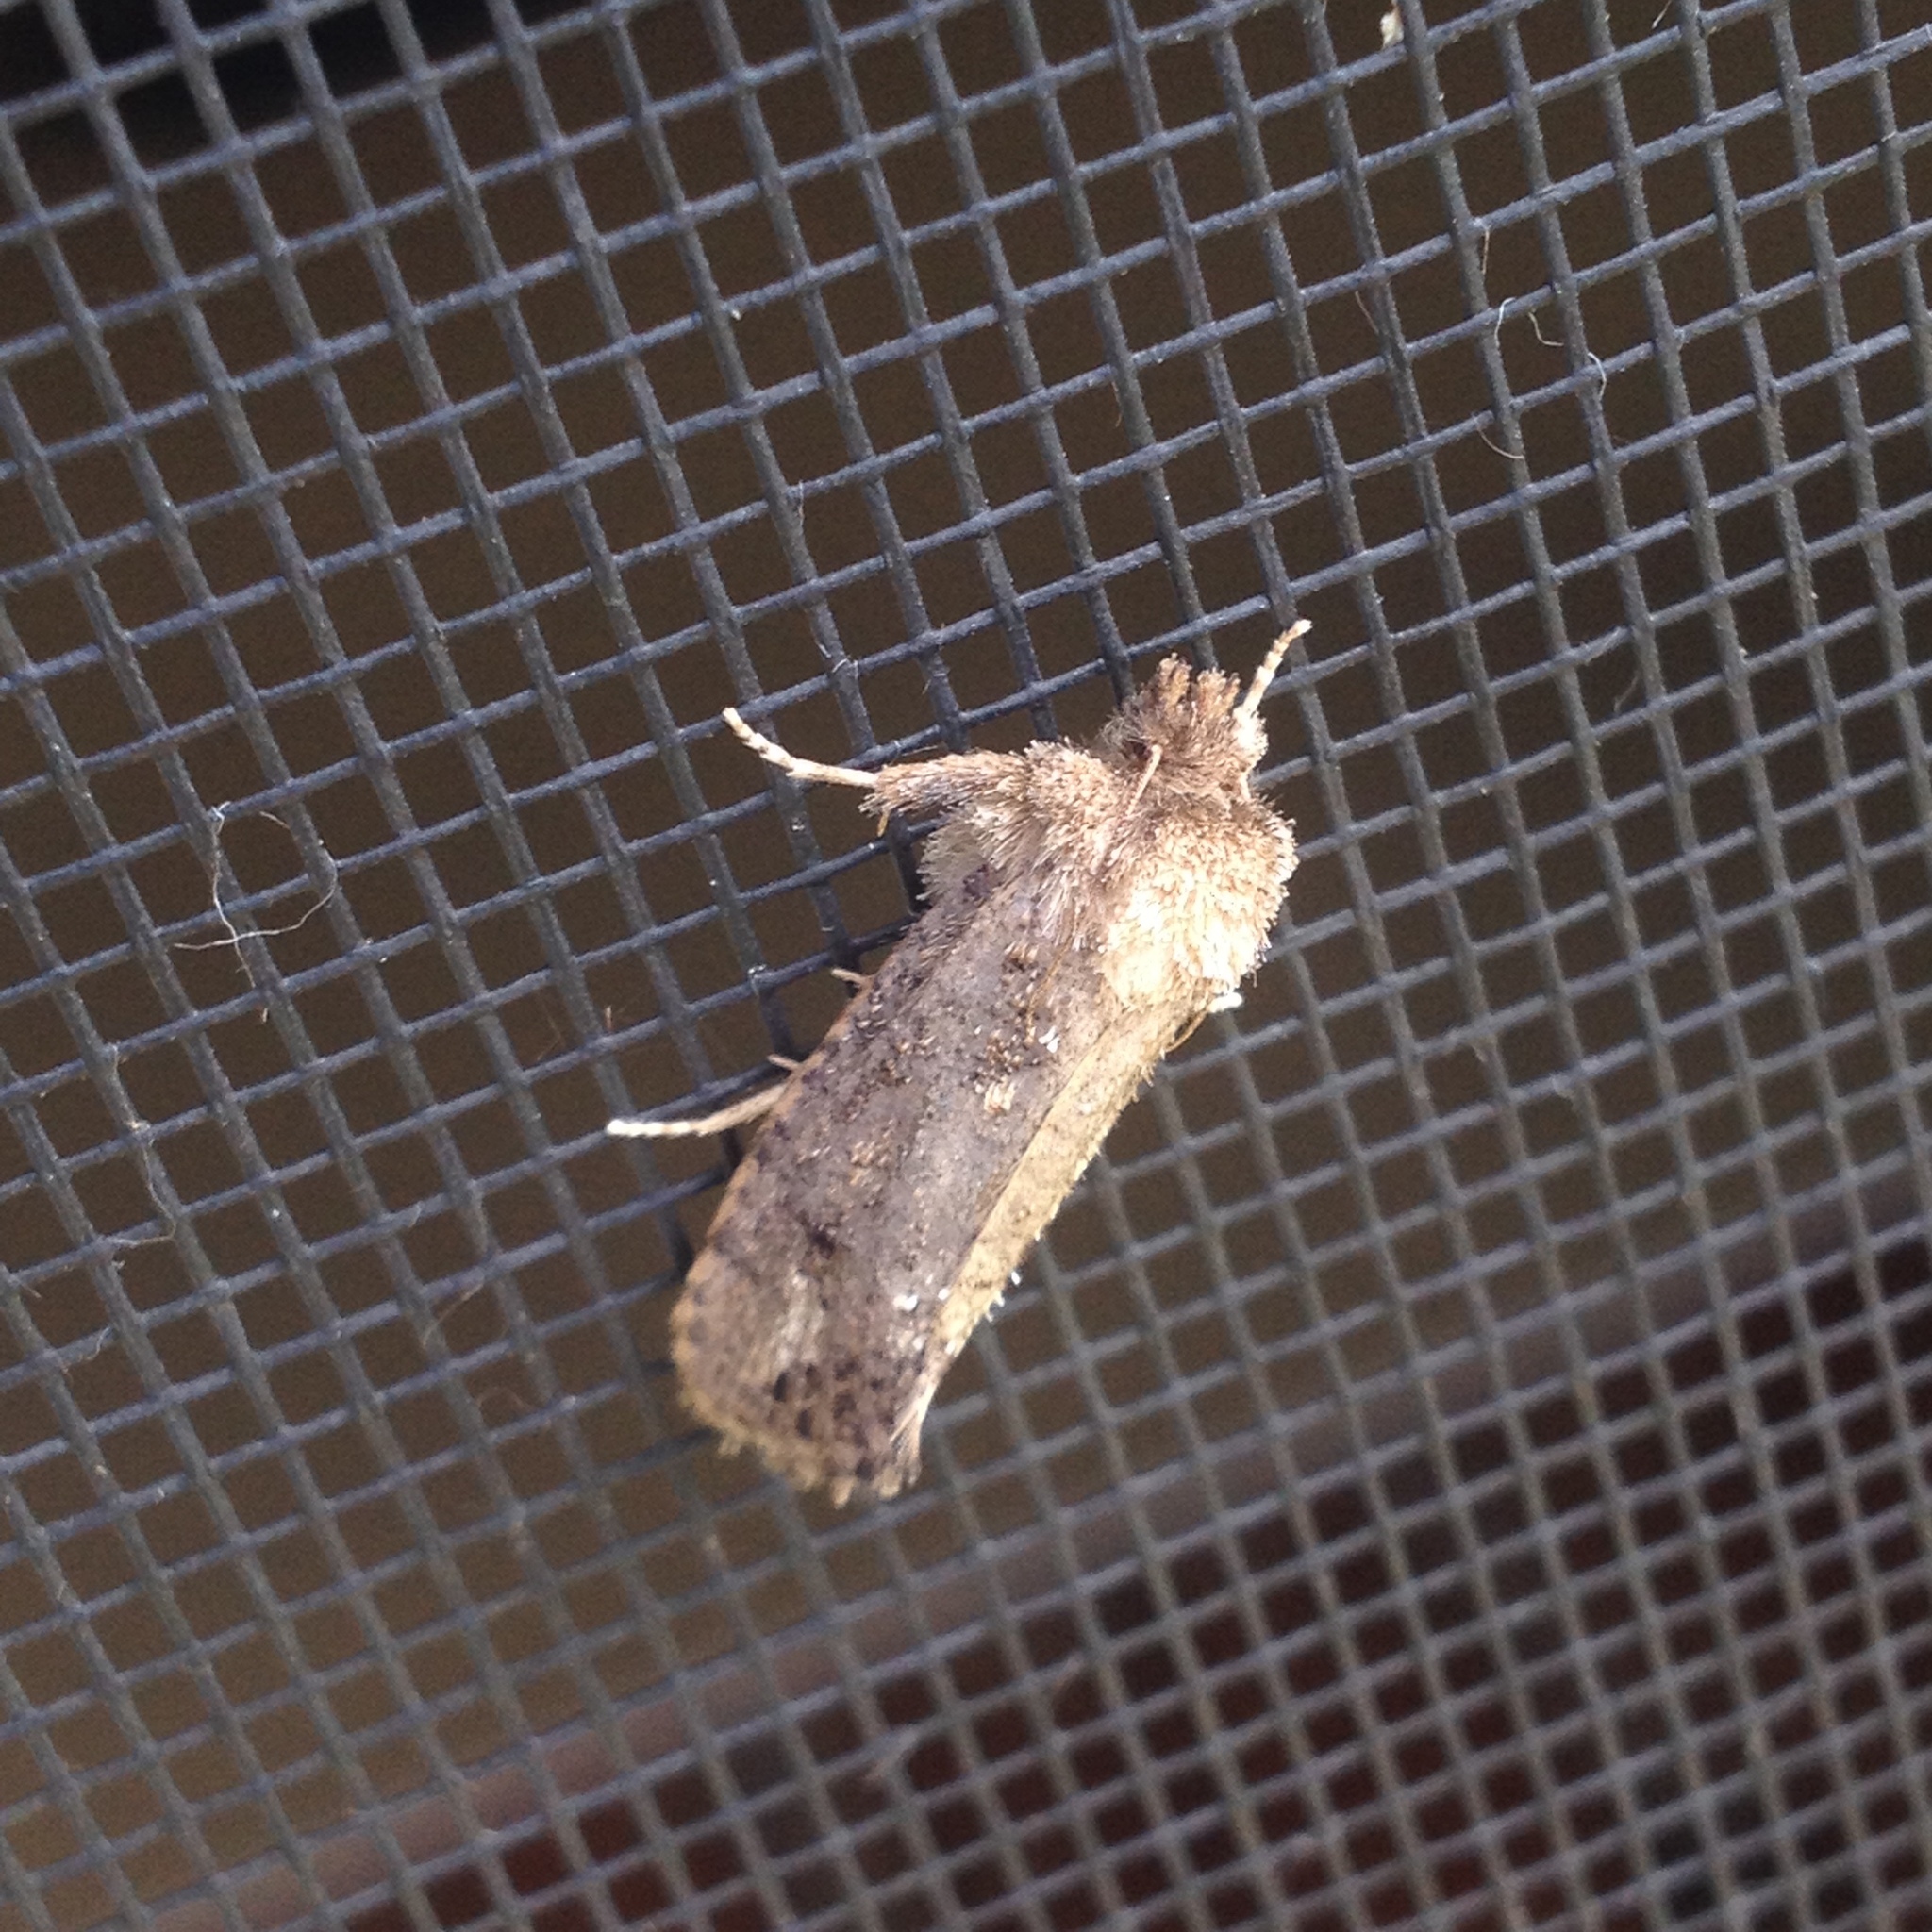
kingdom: Animalia
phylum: Arthropoda
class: Insecta
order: Lepidoptera
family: Tineidae
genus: Acrolophus
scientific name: Acrolophus arcanella
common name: Arcane grass tubeworm moth
